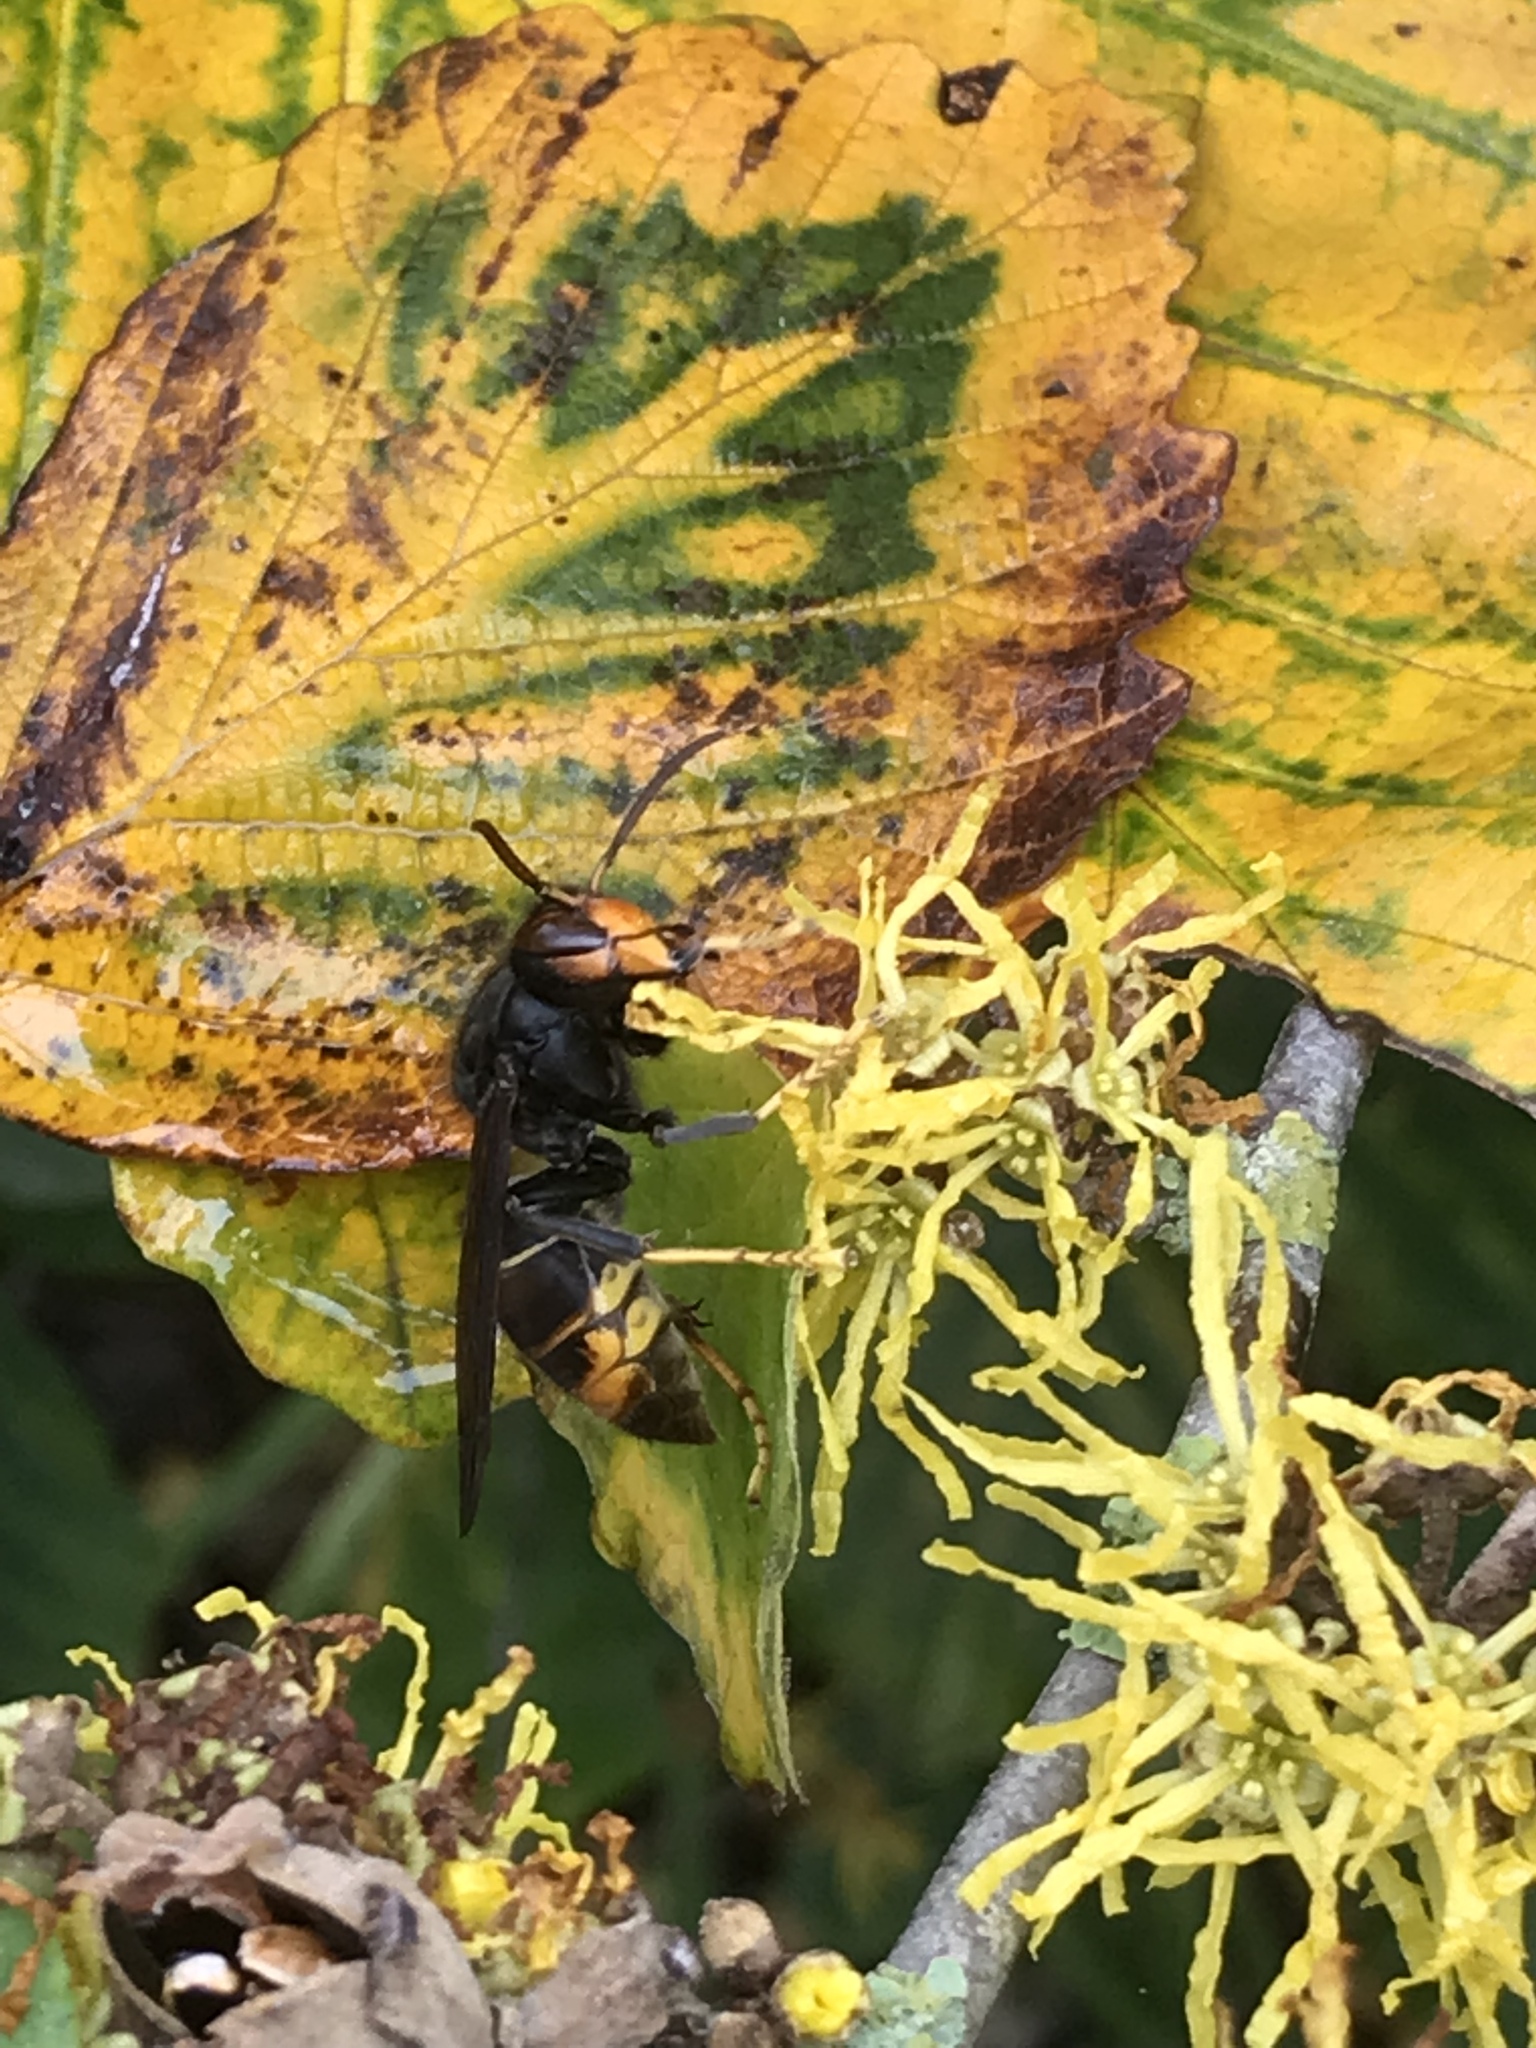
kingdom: Animalia
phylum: Arthropoda
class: Insecta
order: Hymenoptera
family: Vespidae
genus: Vespa
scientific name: Vespa velutina
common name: Asian hornet
